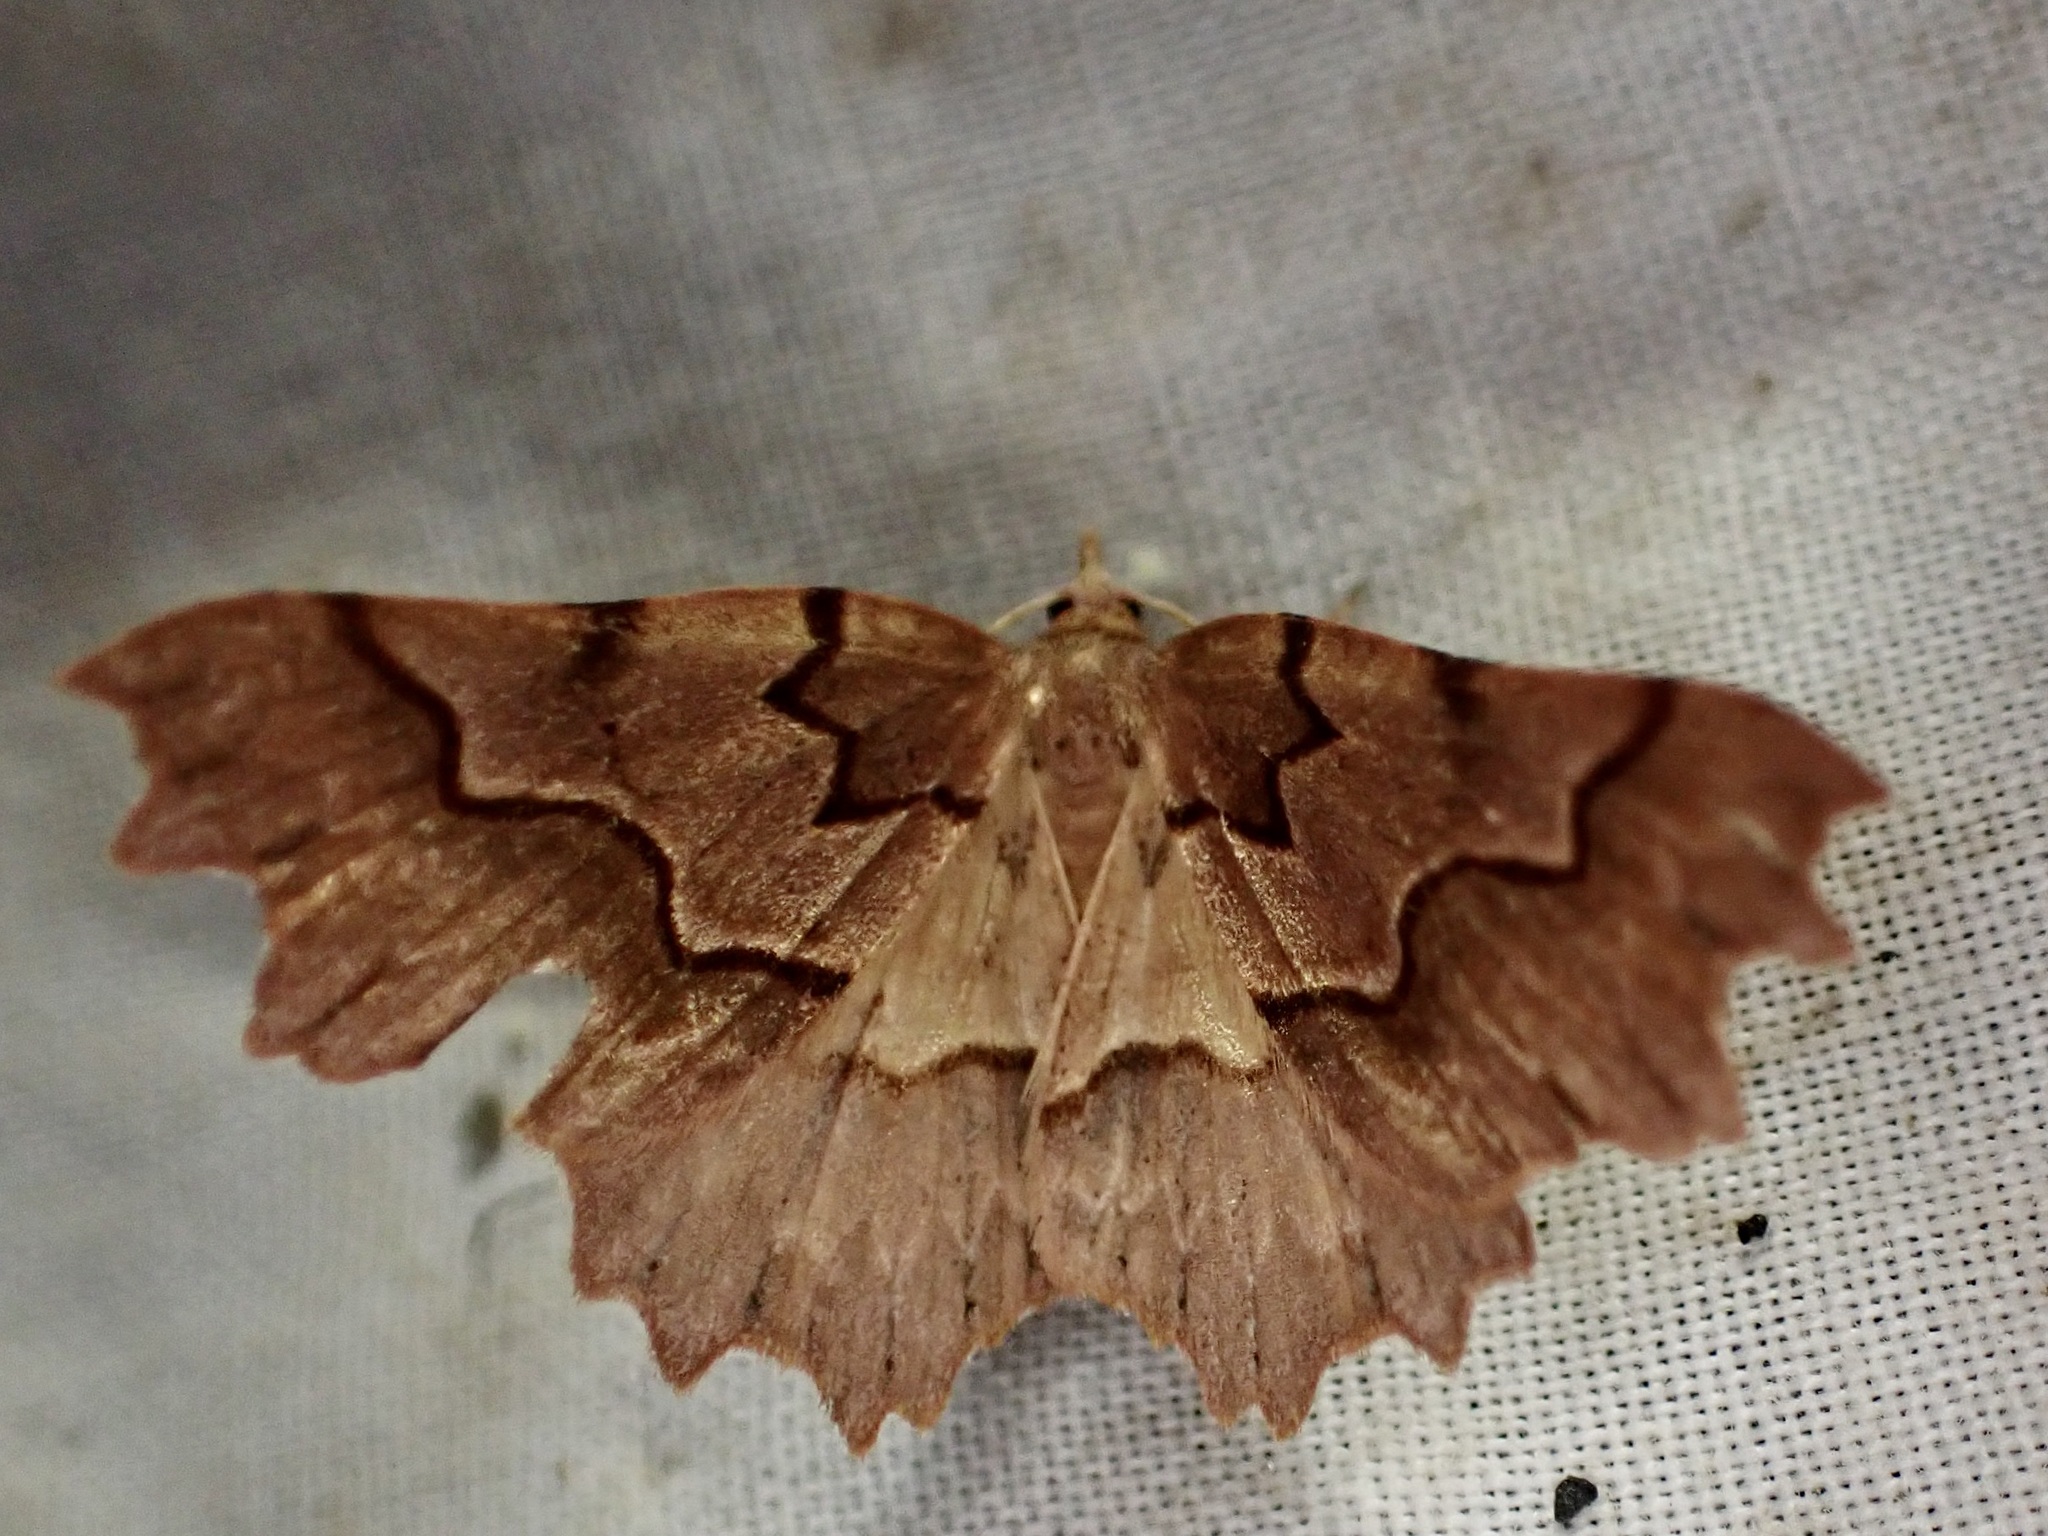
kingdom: Animalia
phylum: Arthropoda
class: Insecta
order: Lepidoptera
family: Geometridae
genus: Ischalis
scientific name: Ischalis fortinata
